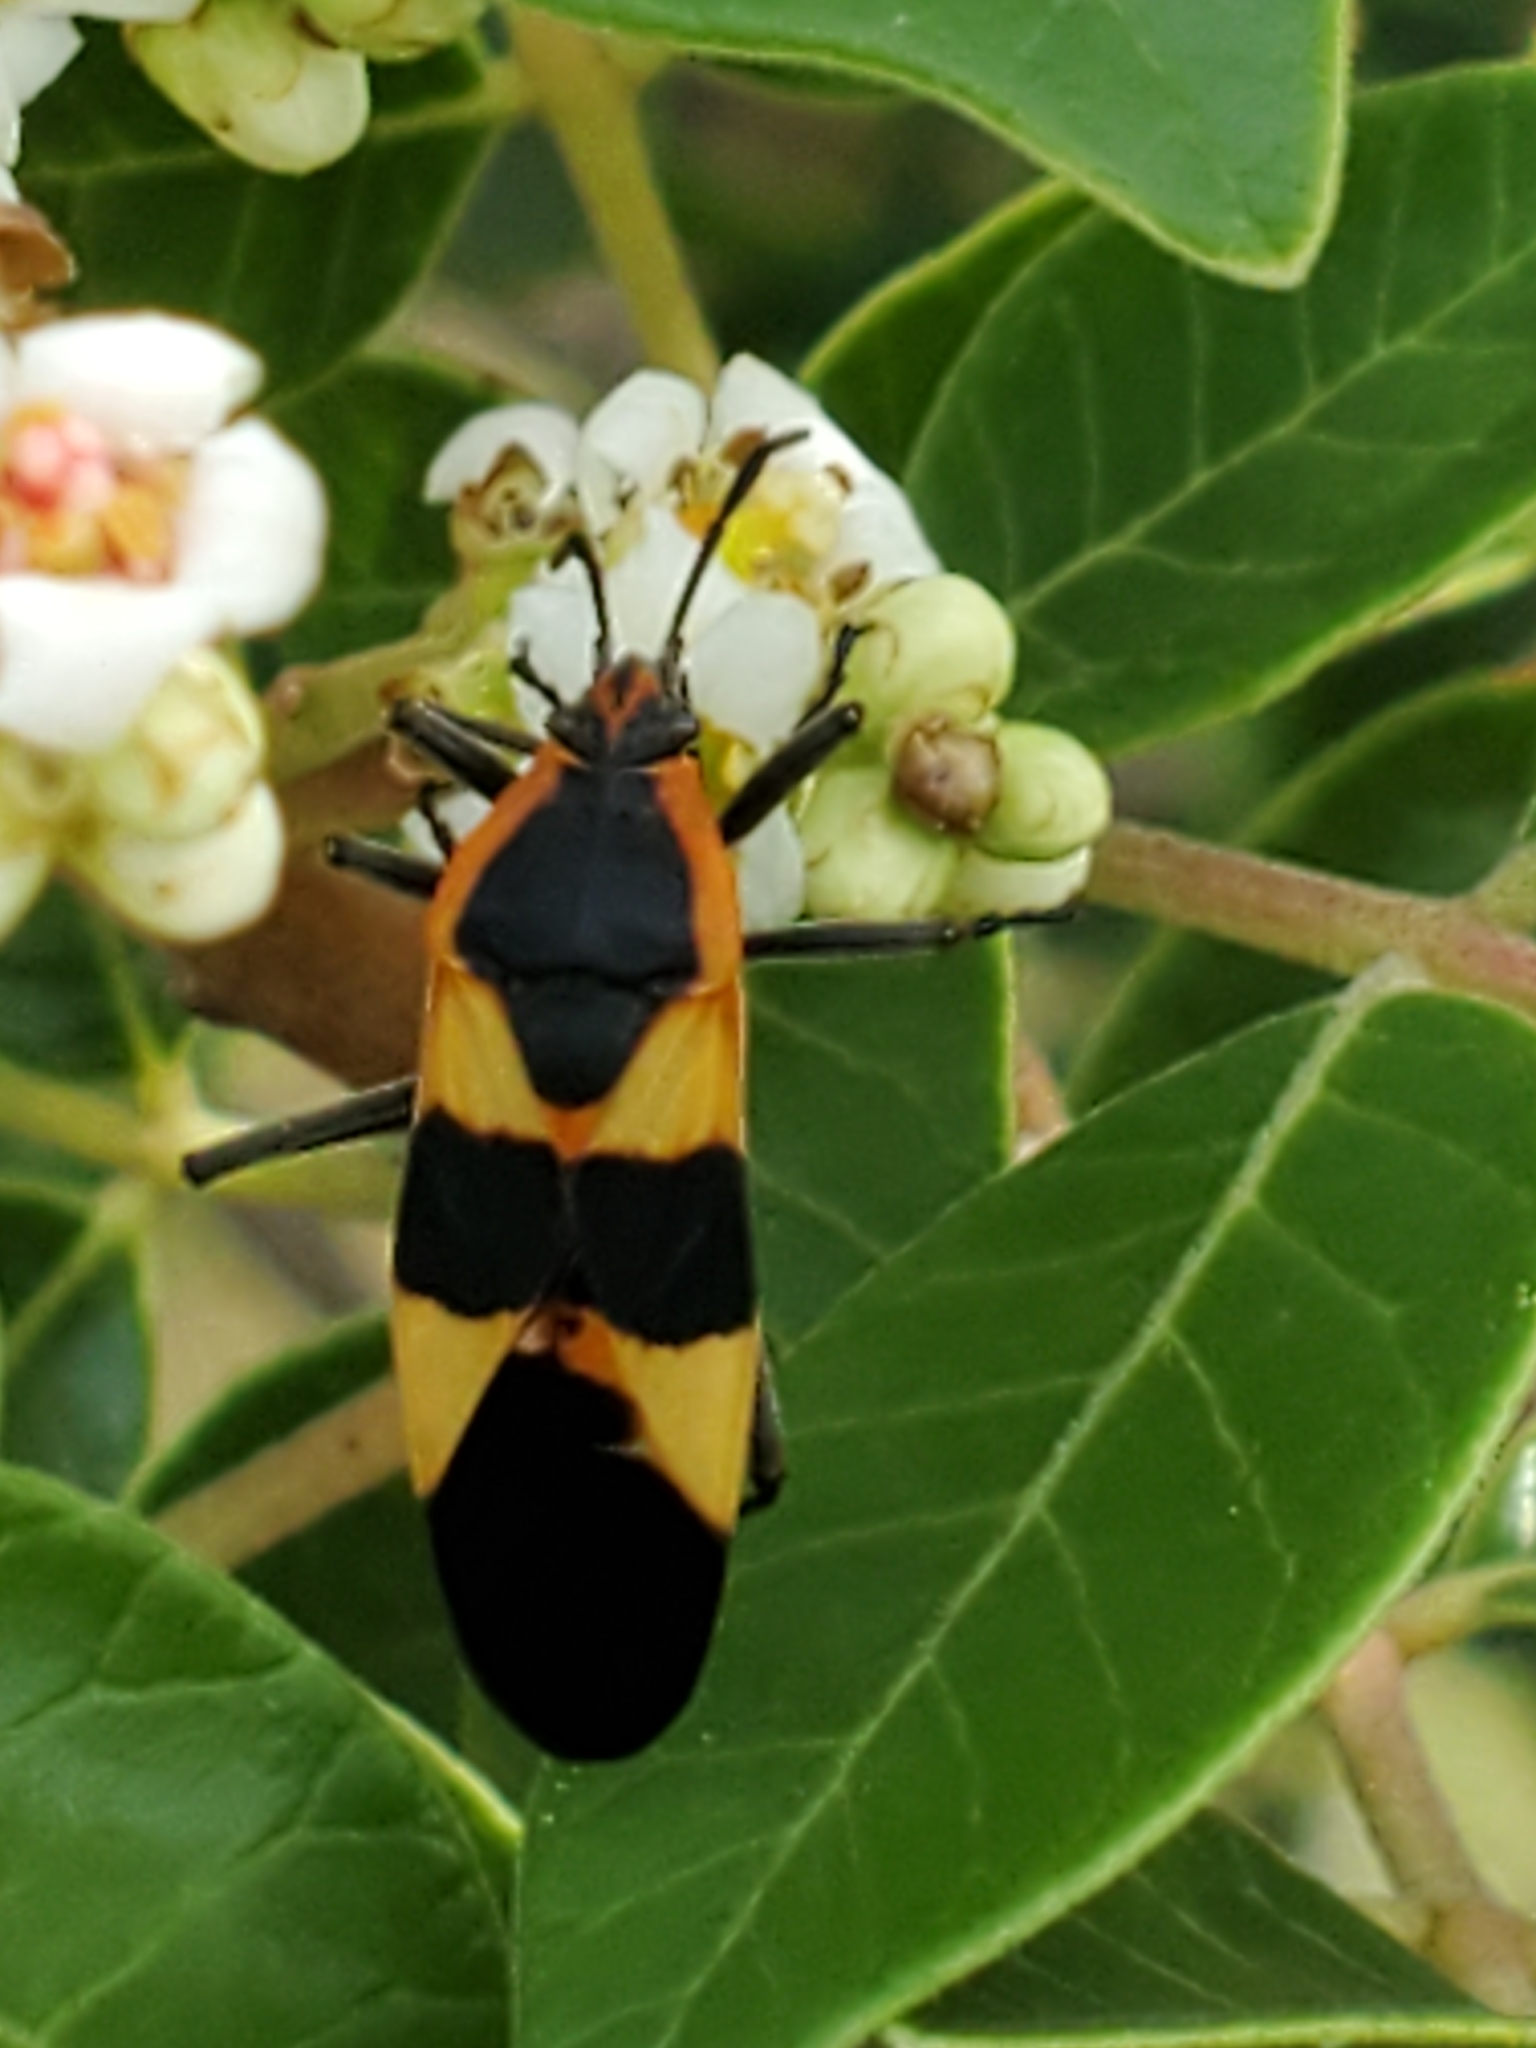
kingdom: Animalia
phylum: Arthropoda
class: Insecta
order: Hemiptera
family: Lygaeidae
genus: Oncopeltus
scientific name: Oncopeltus fasciatus
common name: Large milkweed bug
